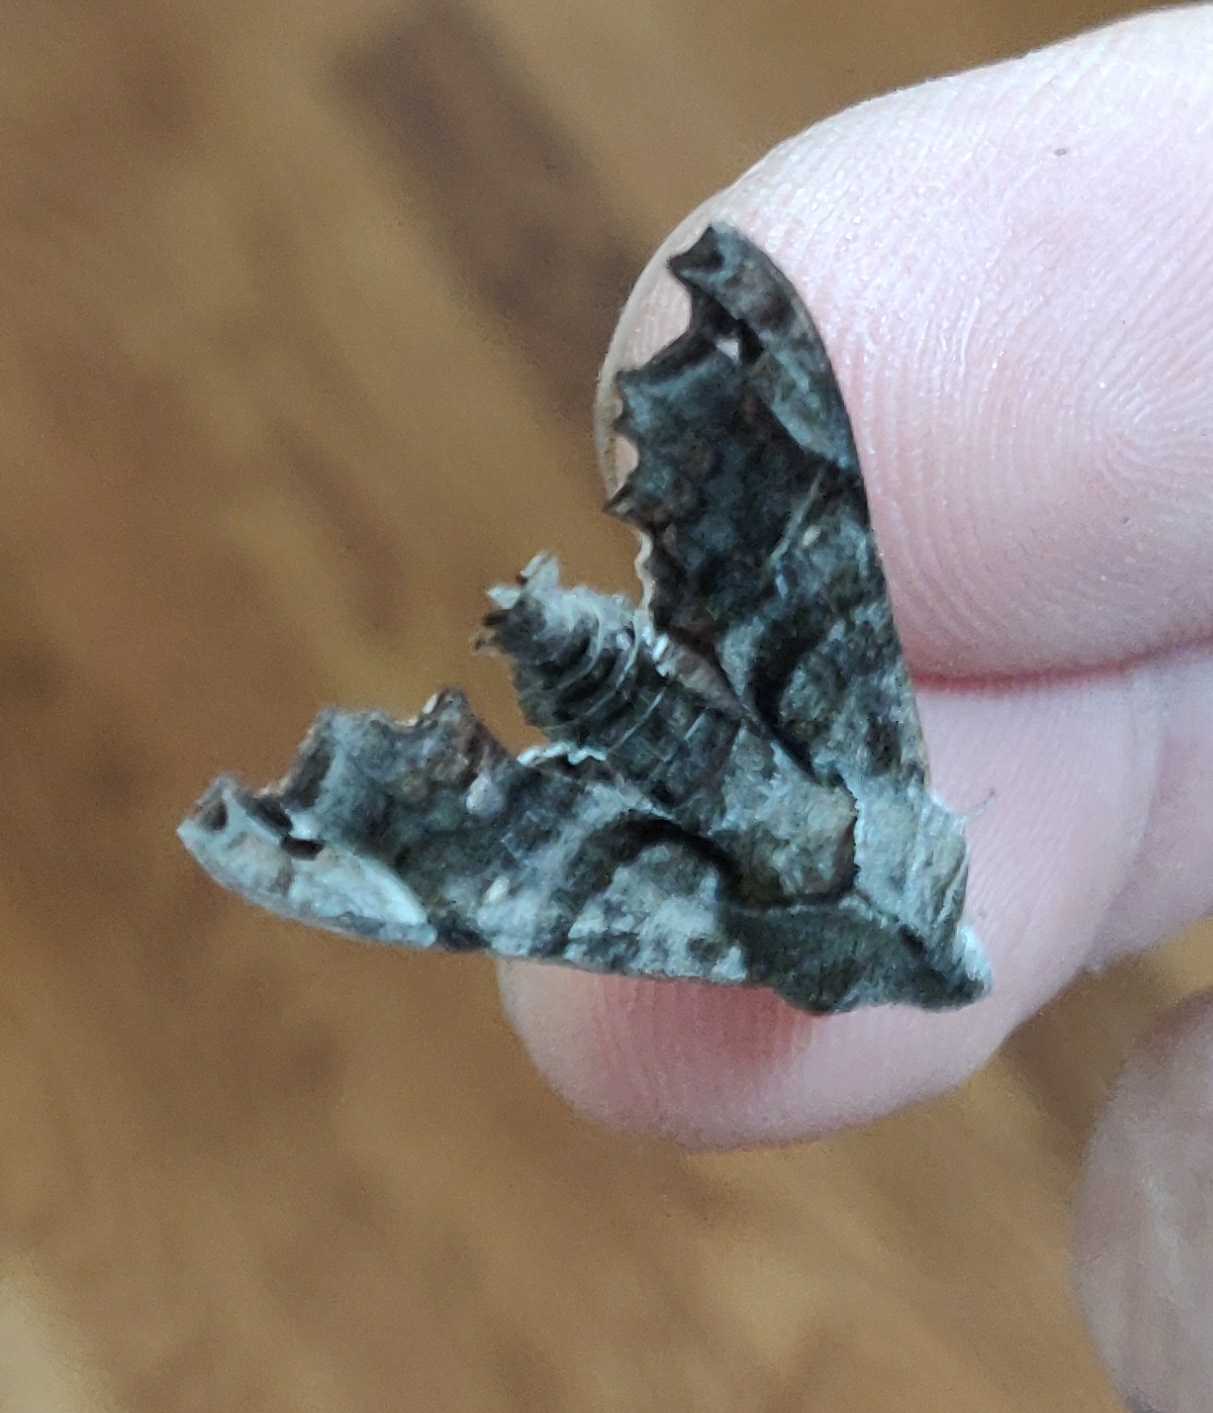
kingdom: Animalia
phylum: Arthropoda
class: Insecta
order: Lepidoptera
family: Sphingidae
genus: Deidamia
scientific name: Deidamia inscriptum
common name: Lettered sphinx
